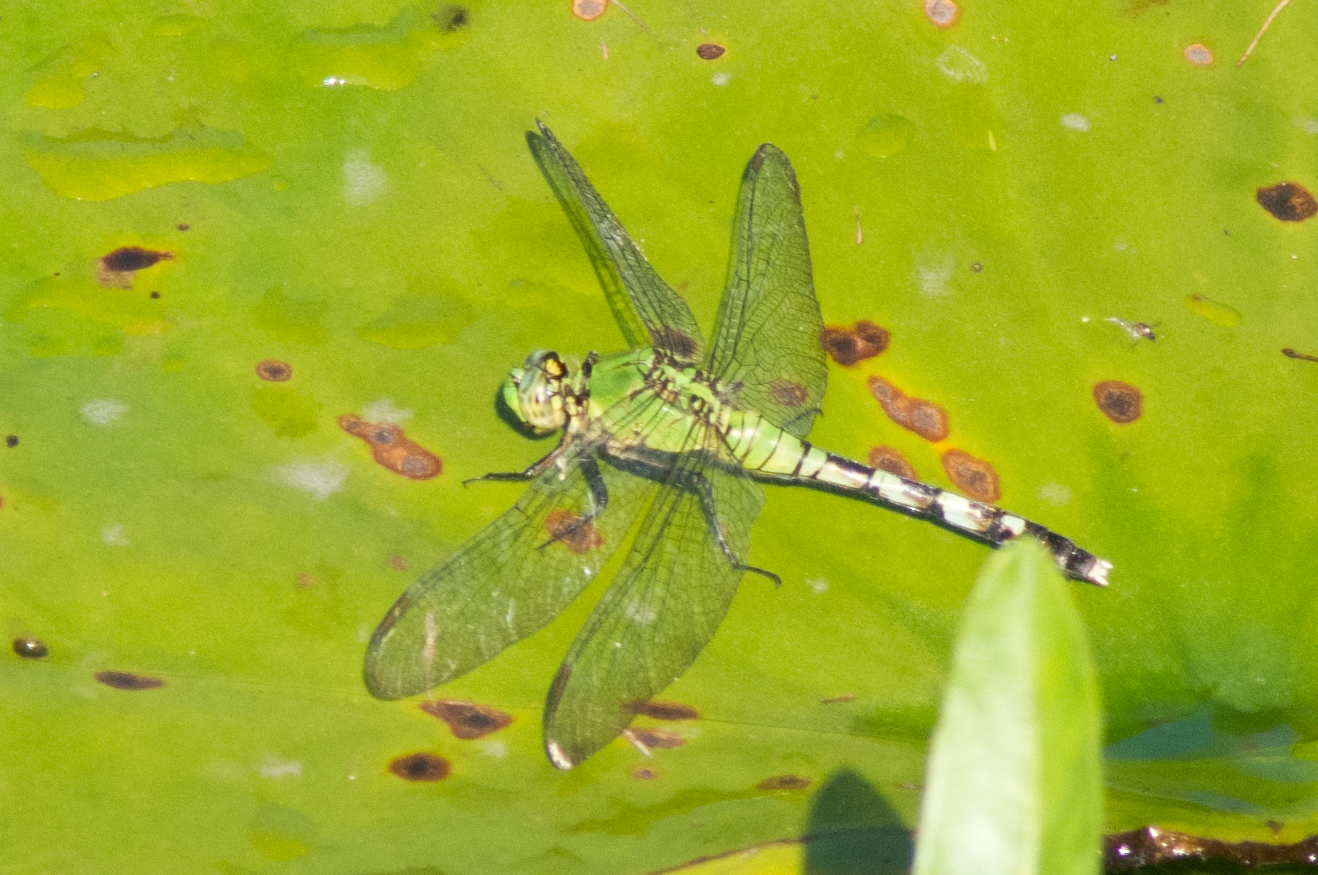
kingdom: Animalia
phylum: Arthropoda
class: Insecta
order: Odonata
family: Libellulidae
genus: Erythemis
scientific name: Erythemis simplicicollis
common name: Eastern pondhawk
